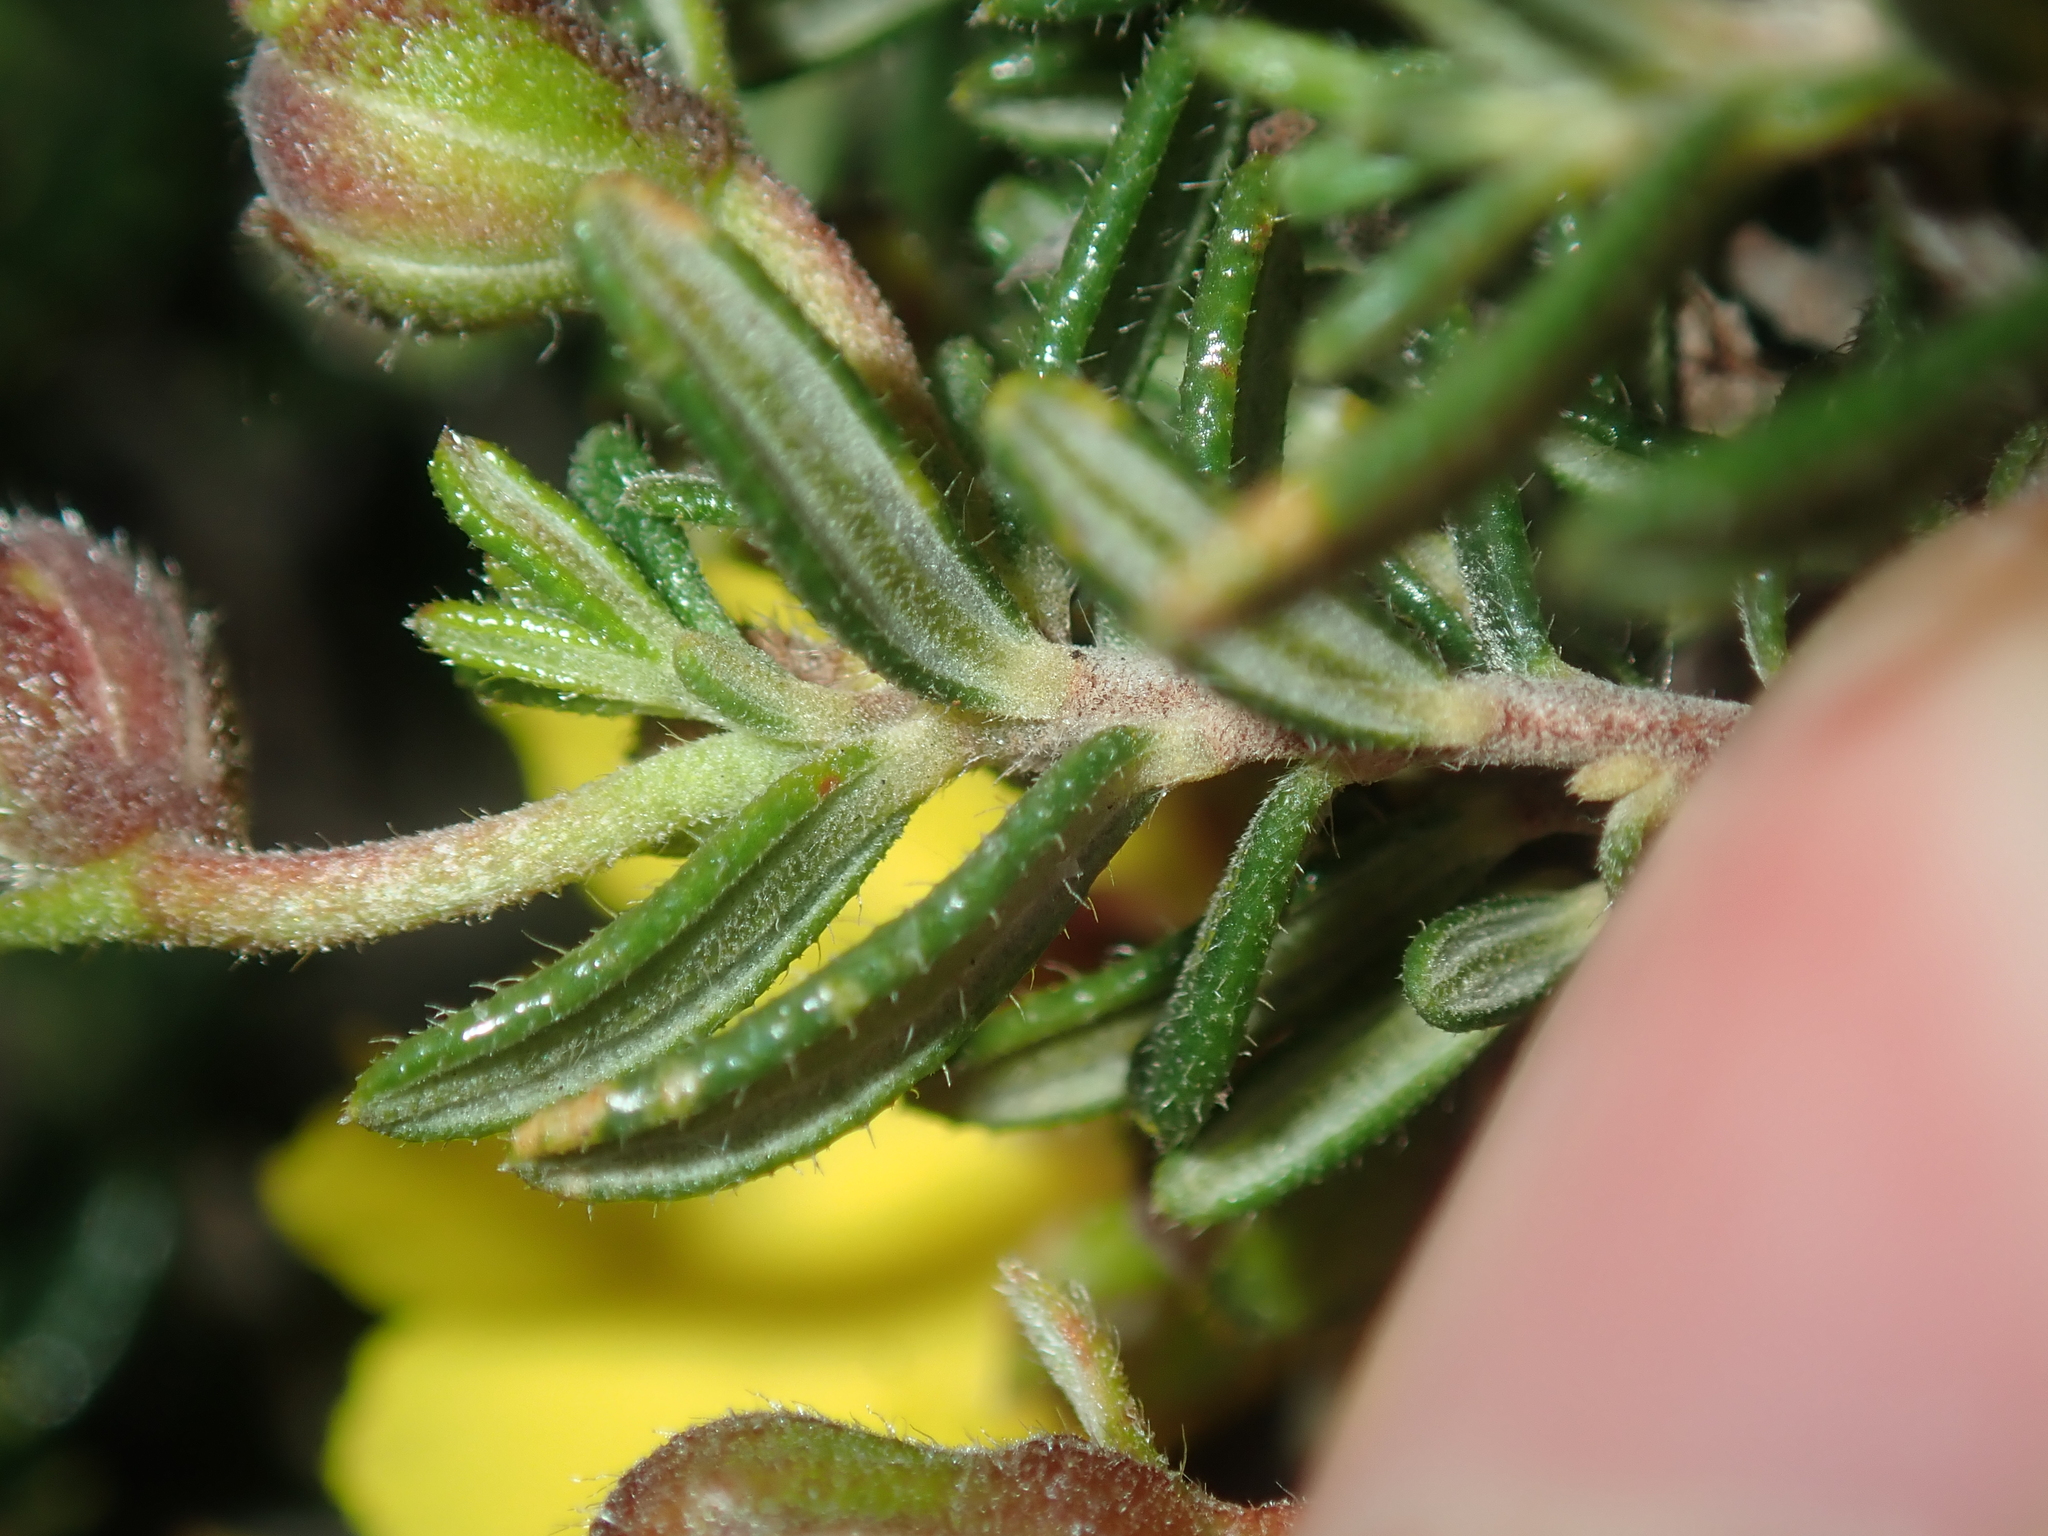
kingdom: Plantae
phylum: Tracheophyta
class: Magnoliopsida
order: Dilleniales
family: Dilleniaceae
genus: Hibbertia
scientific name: Hibbertia hypericoides
